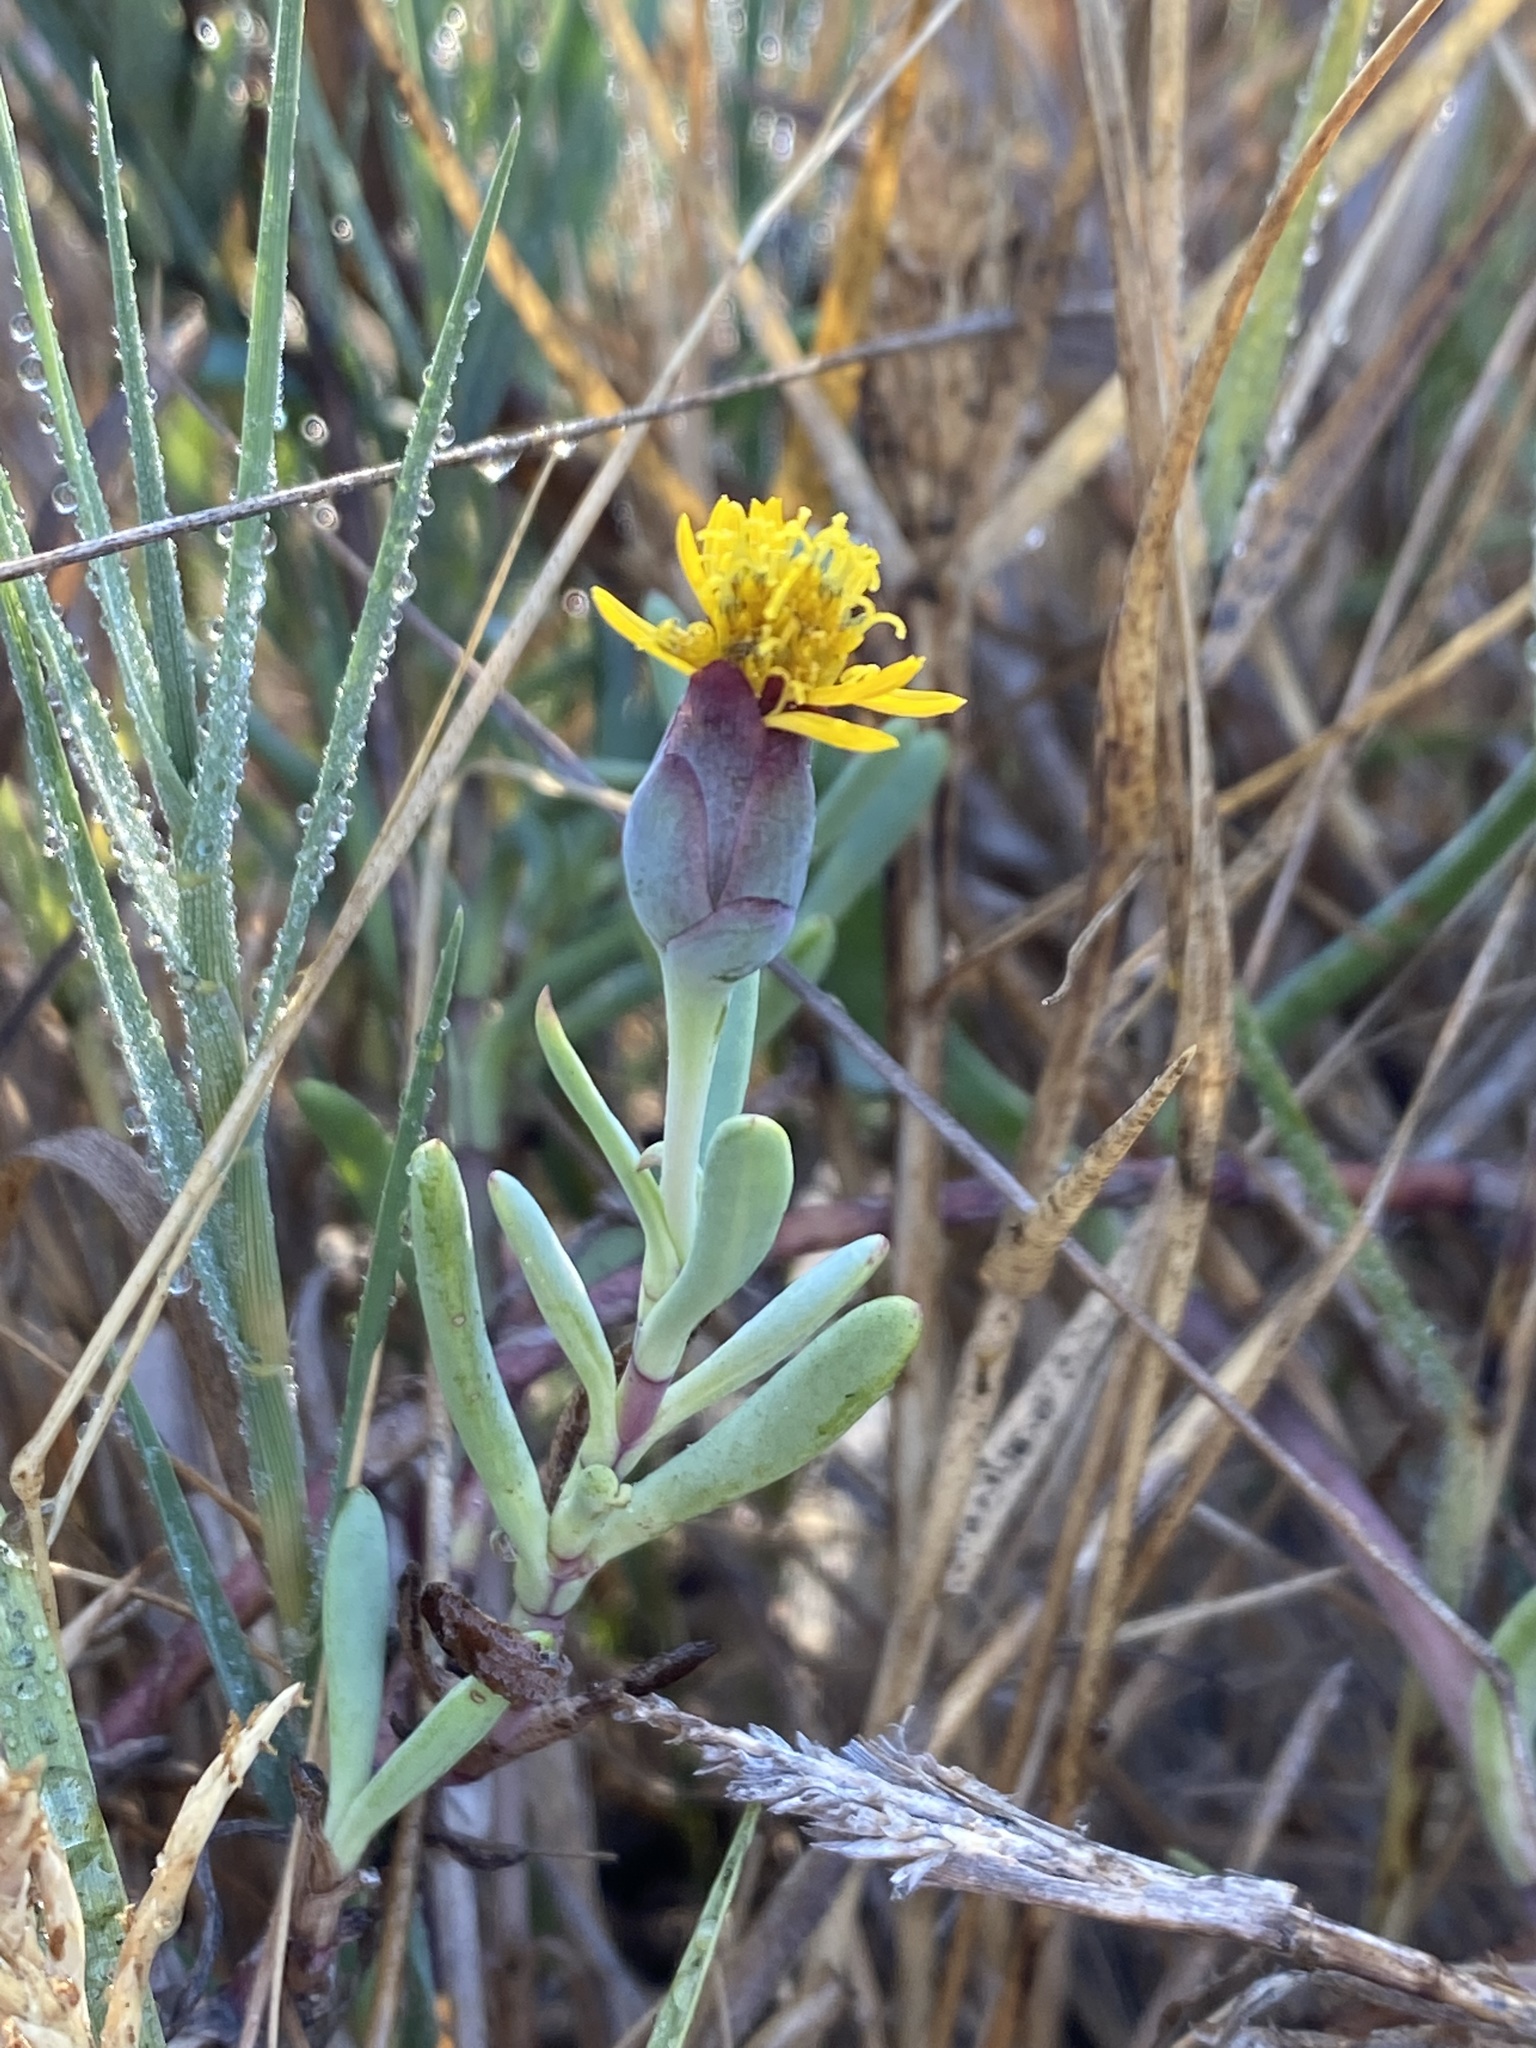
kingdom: Plantae
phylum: Tracheophyta
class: Magnoliopsida
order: Asterales
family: Asteraceae
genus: Jaumea
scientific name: Jaumea carnosa
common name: Fleshy jaumea
